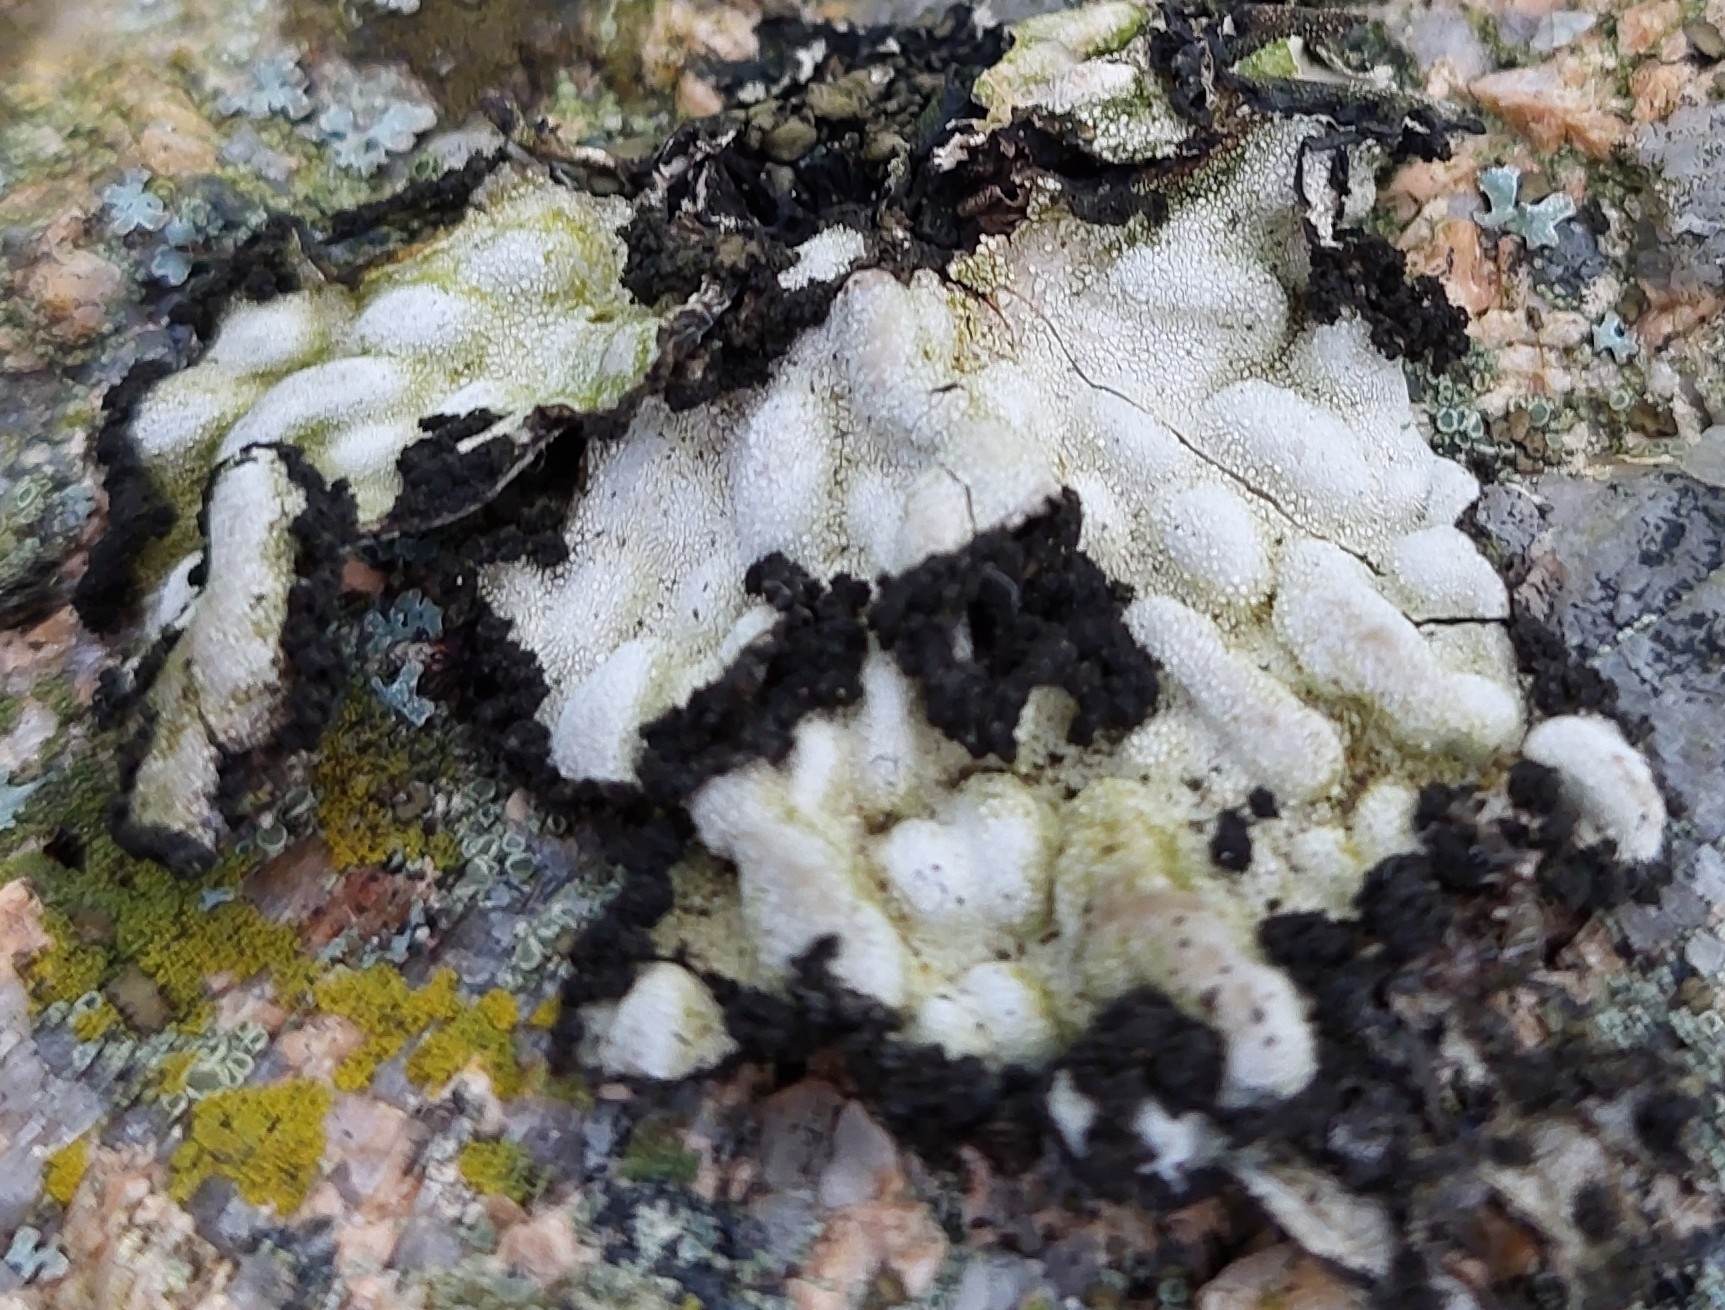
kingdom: Fungi
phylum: Ascomycota
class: Lecanoromycetes
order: Umbilicariales
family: Umbilicariaceae
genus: Lasallia
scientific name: Lasallia pustulata
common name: Blistered toadskin lichen
